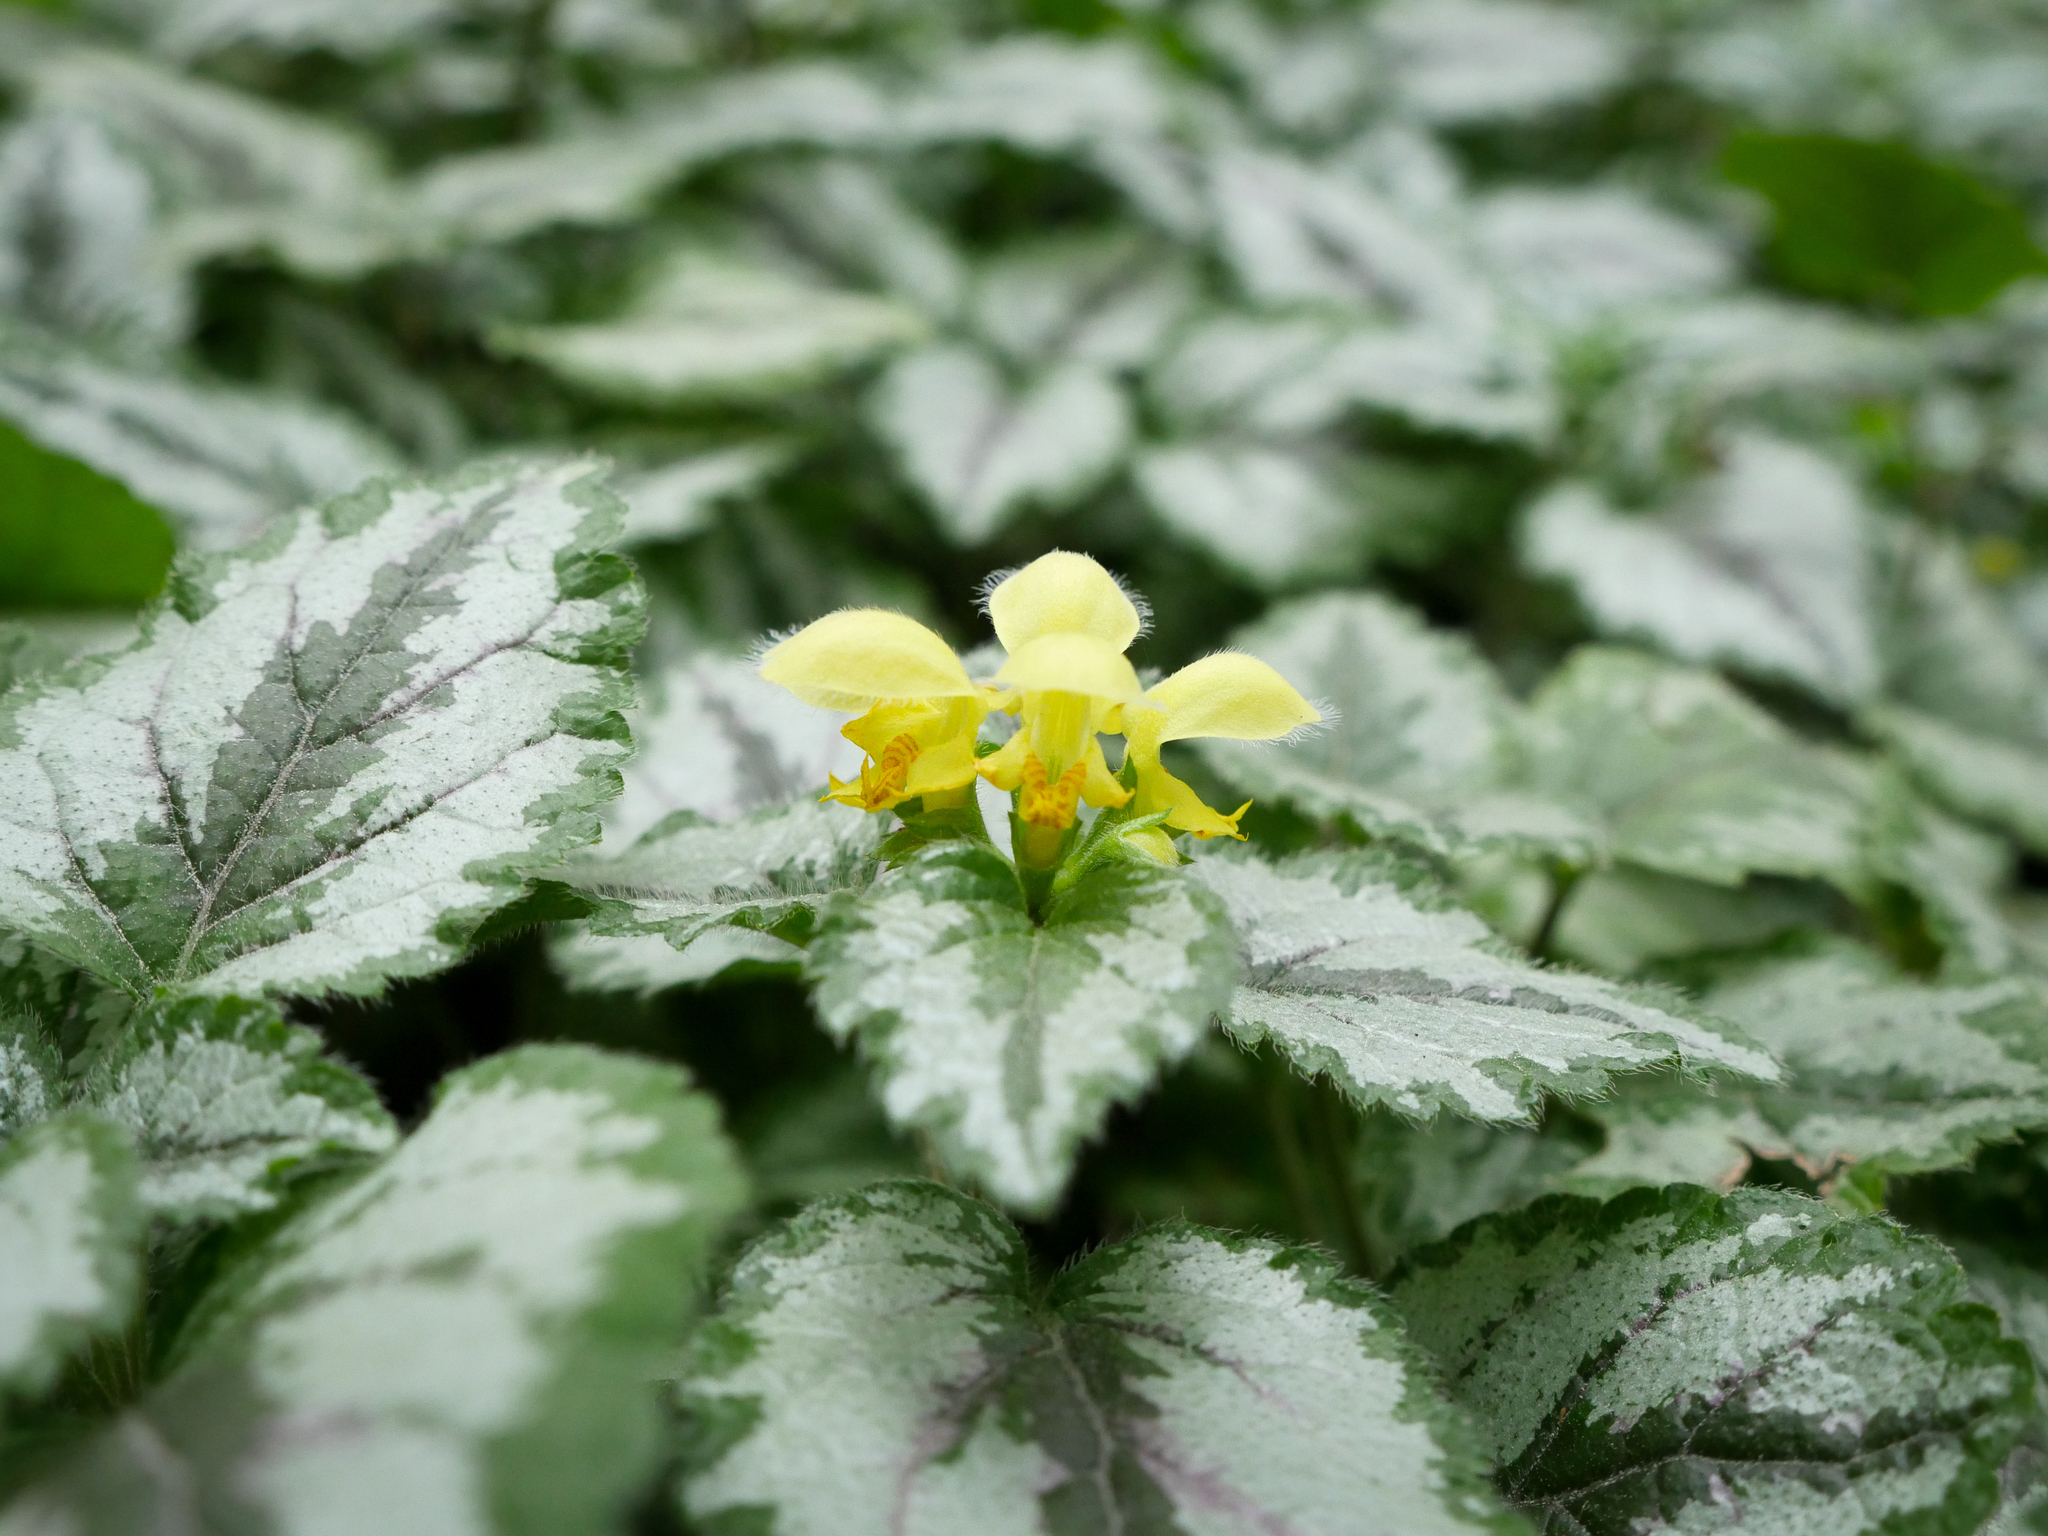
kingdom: Plantae
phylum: Tracheophyta
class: Magnoliopsida
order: Lamiales
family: Lamiaceae
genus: Lamium
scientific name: Lamium galeobdolon
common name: Yellow archangel
